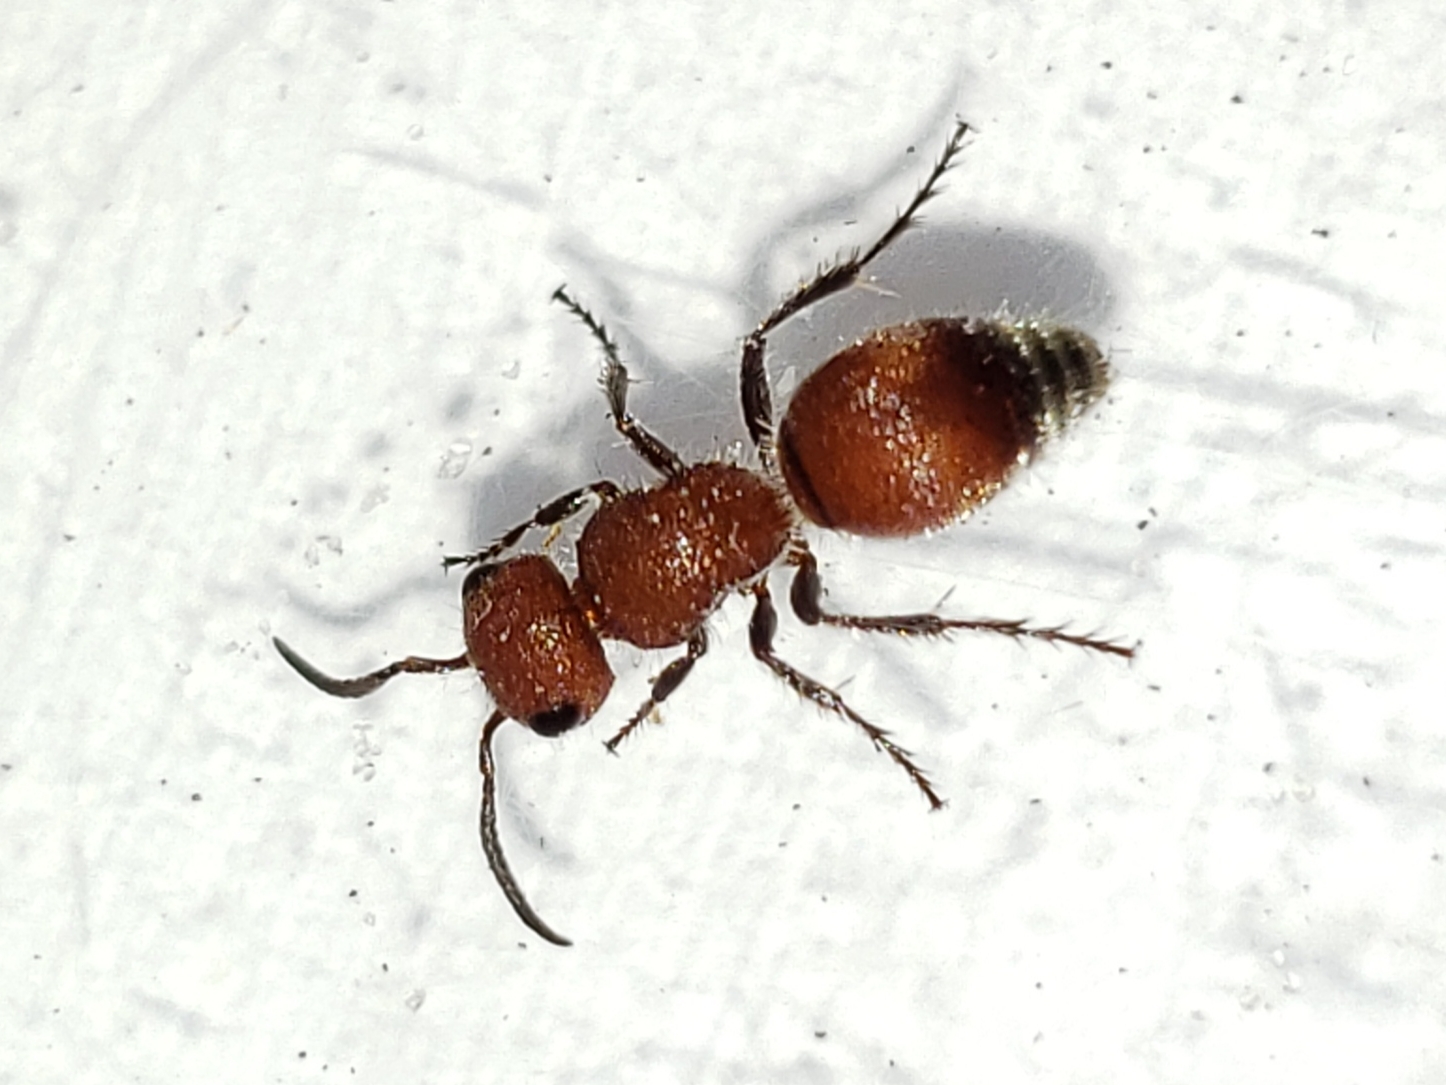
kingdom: Animalia
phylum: Arthropoda
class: Insecta
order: Hymenoptera
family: Mutillidae
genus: Pseudomethoca
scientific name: Pseudomethoca
